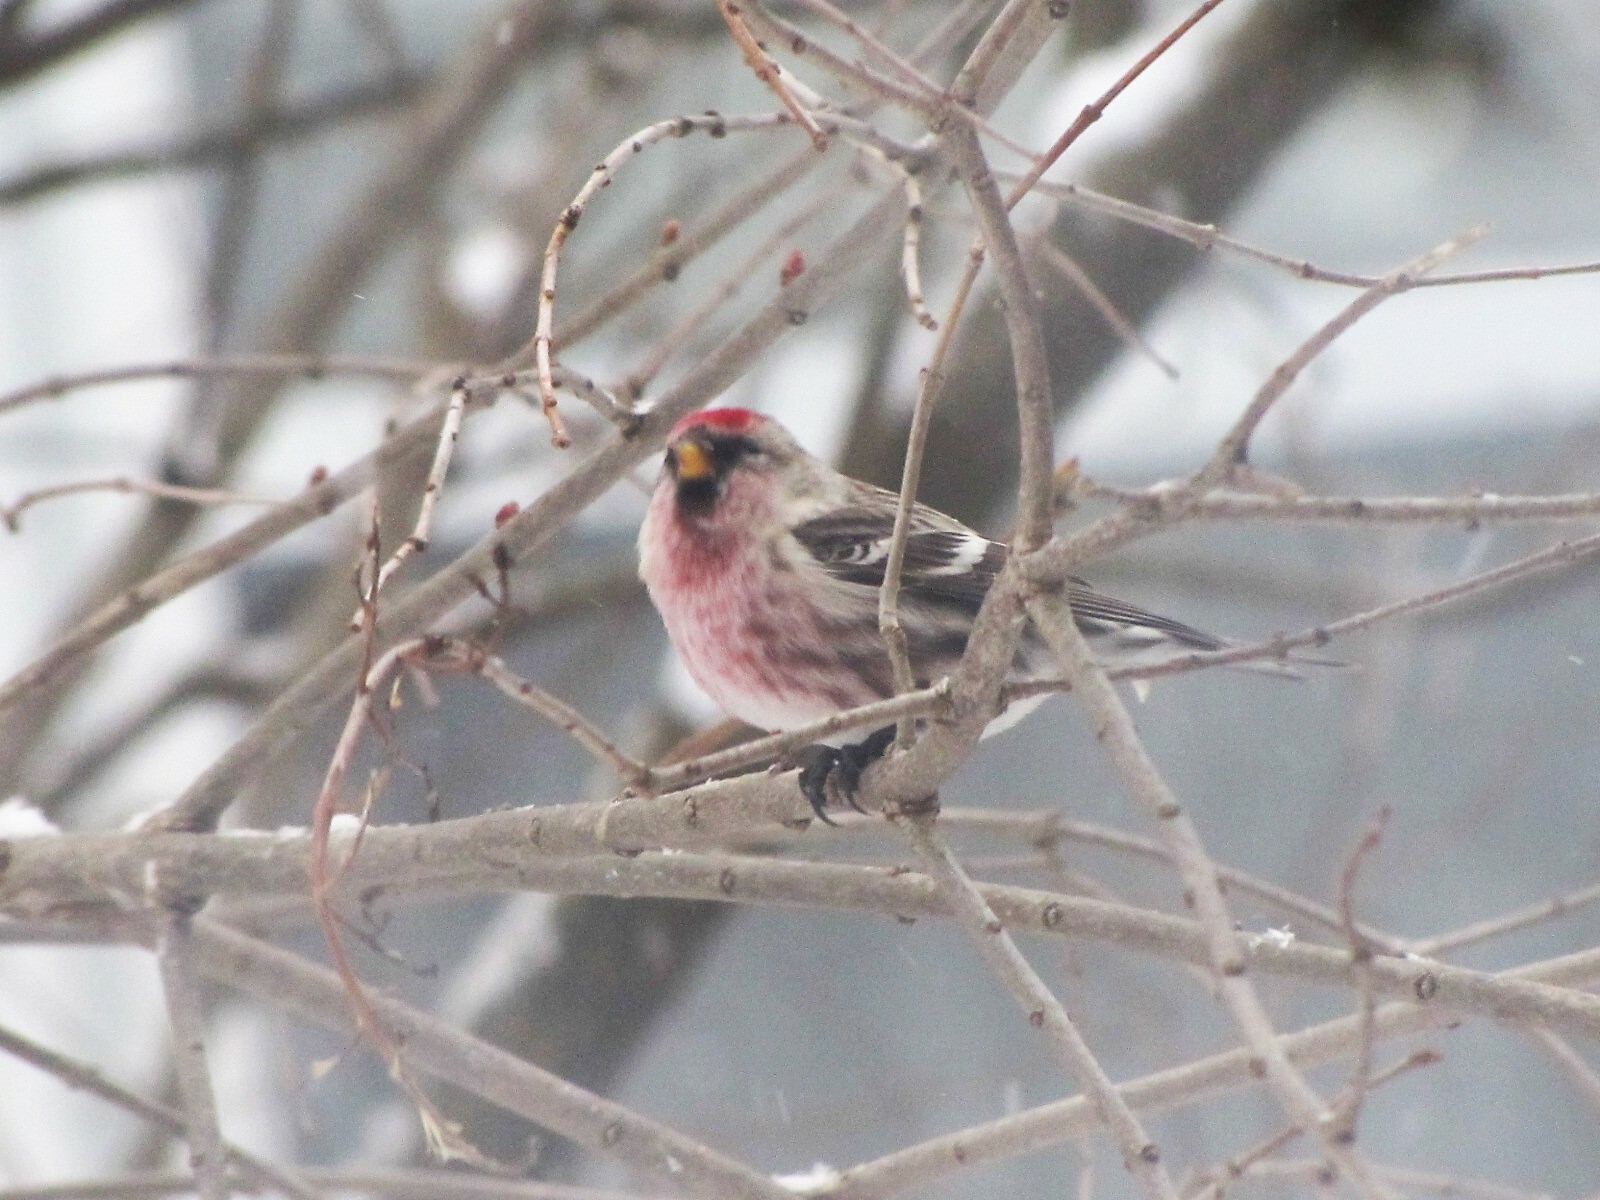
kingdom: Animalia
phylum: Chordata
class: Aves
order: Passeriformes
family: Fringillidae
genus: Acanthis
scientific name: Acanthis flammea
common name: Common redpoll
